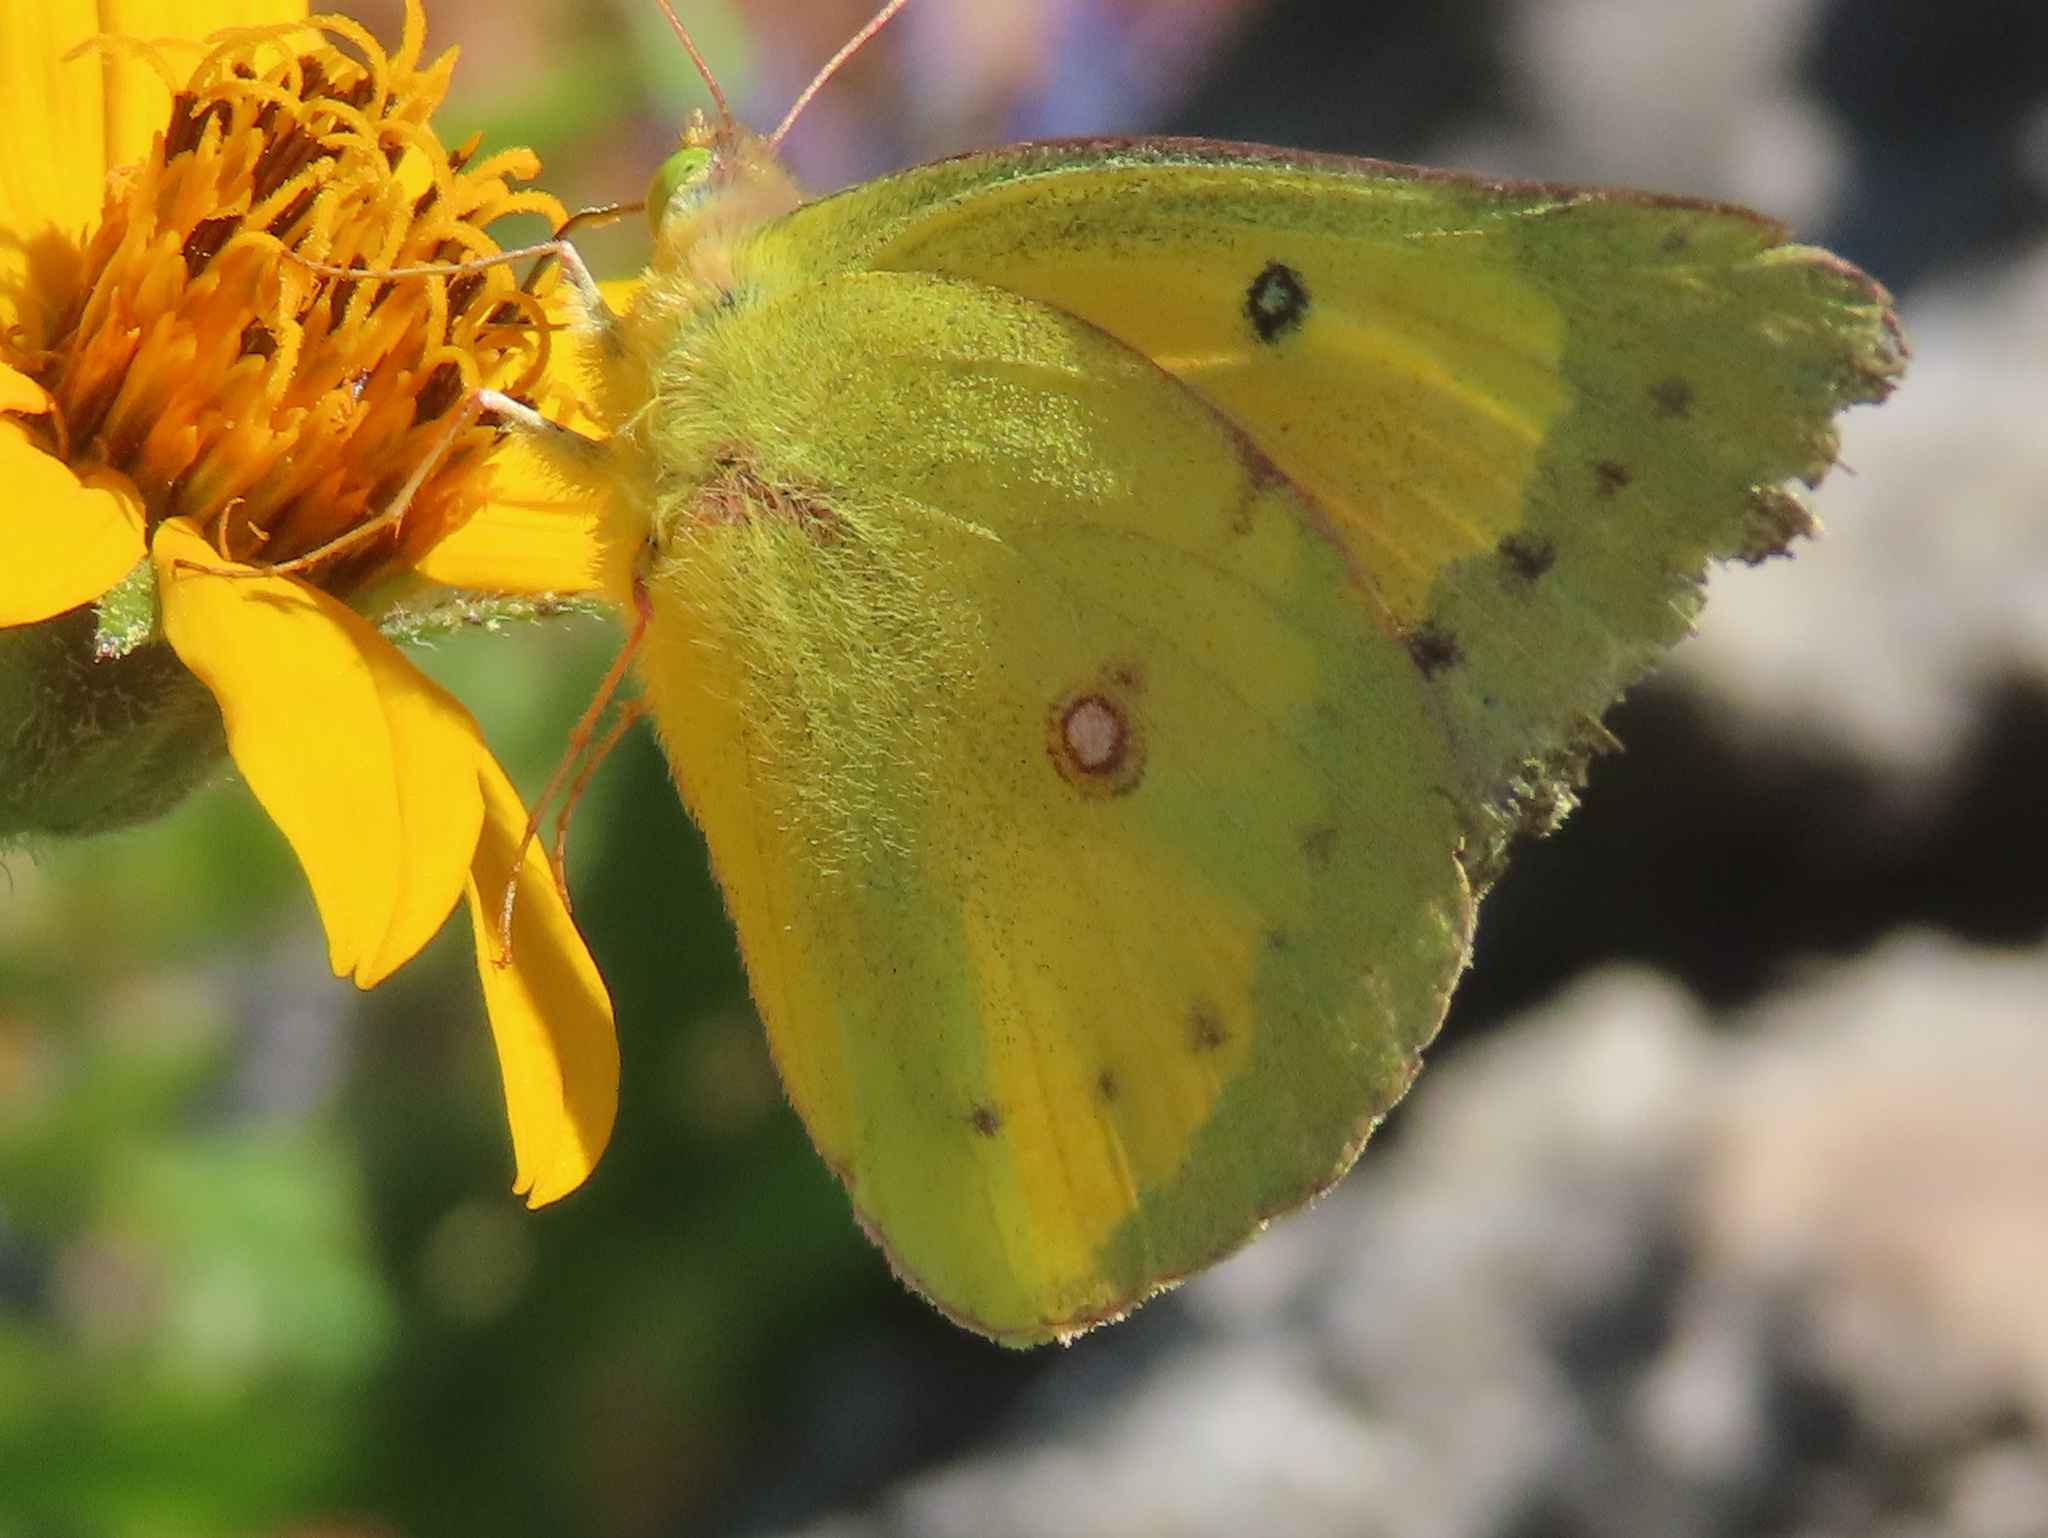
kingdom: Animalia
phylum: Arthropoda
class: Insecta
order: Lepidoptera
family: Pieridae
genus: Colias
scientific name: Colias eurytheme
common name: Alfalfa butterfly
